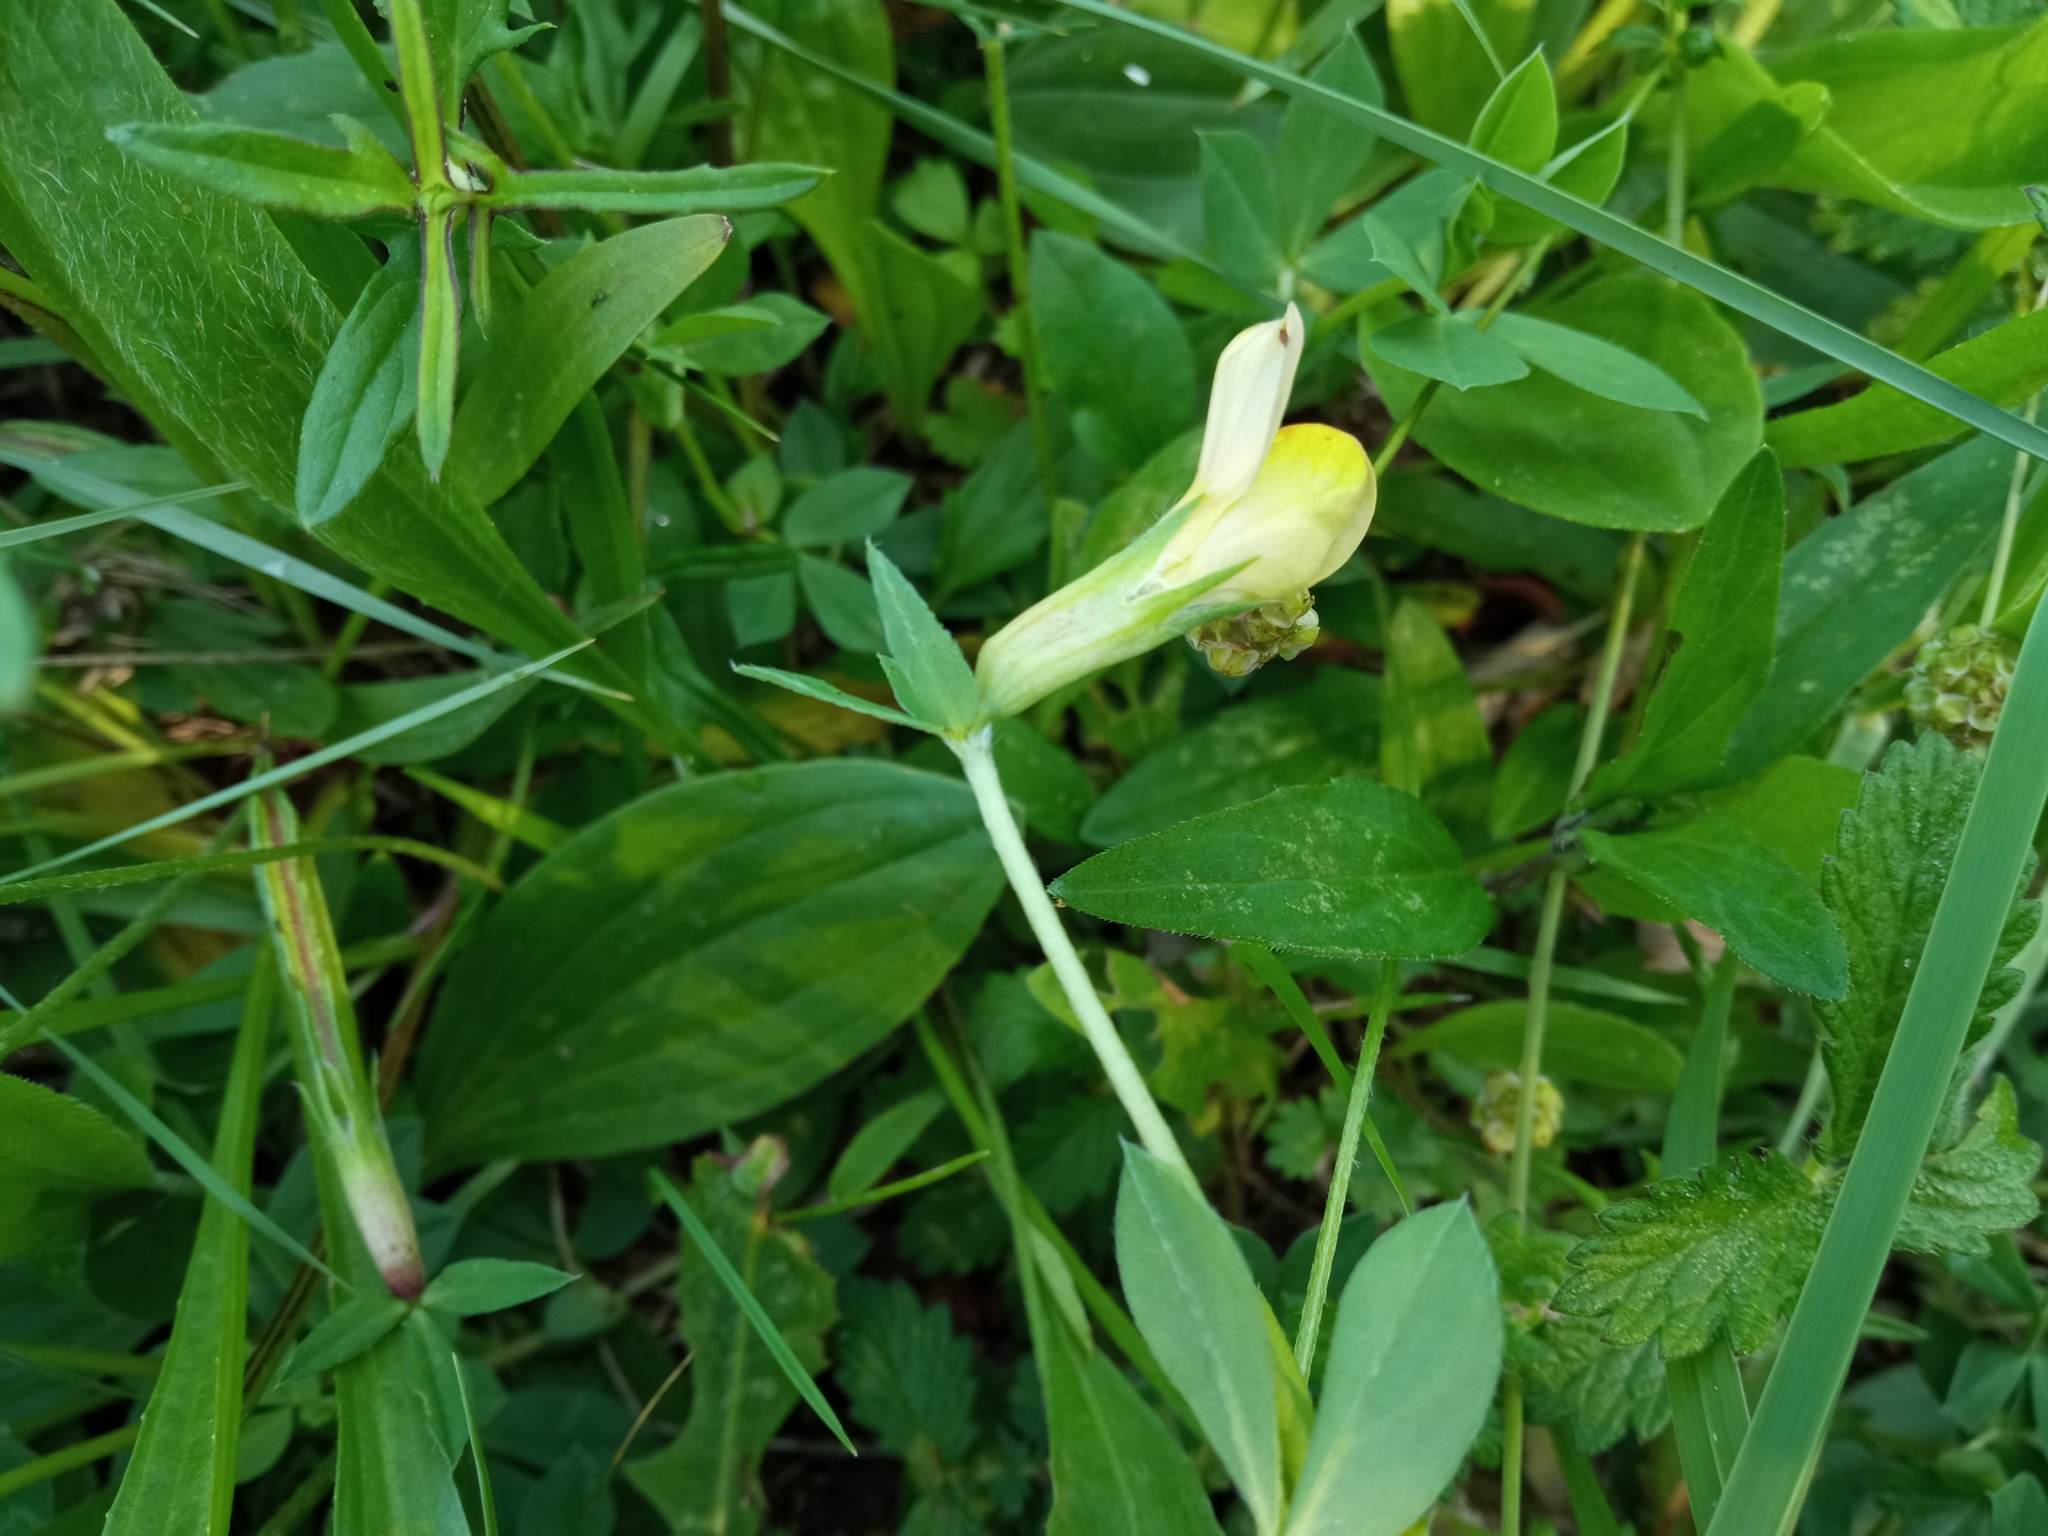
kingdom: Plantae
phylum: Tracheophyta
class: Magnoliopsida
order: Fabales
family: Fabaceae
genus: Lotus
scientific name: Lotus maritimus
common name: Dragon's-teeth
